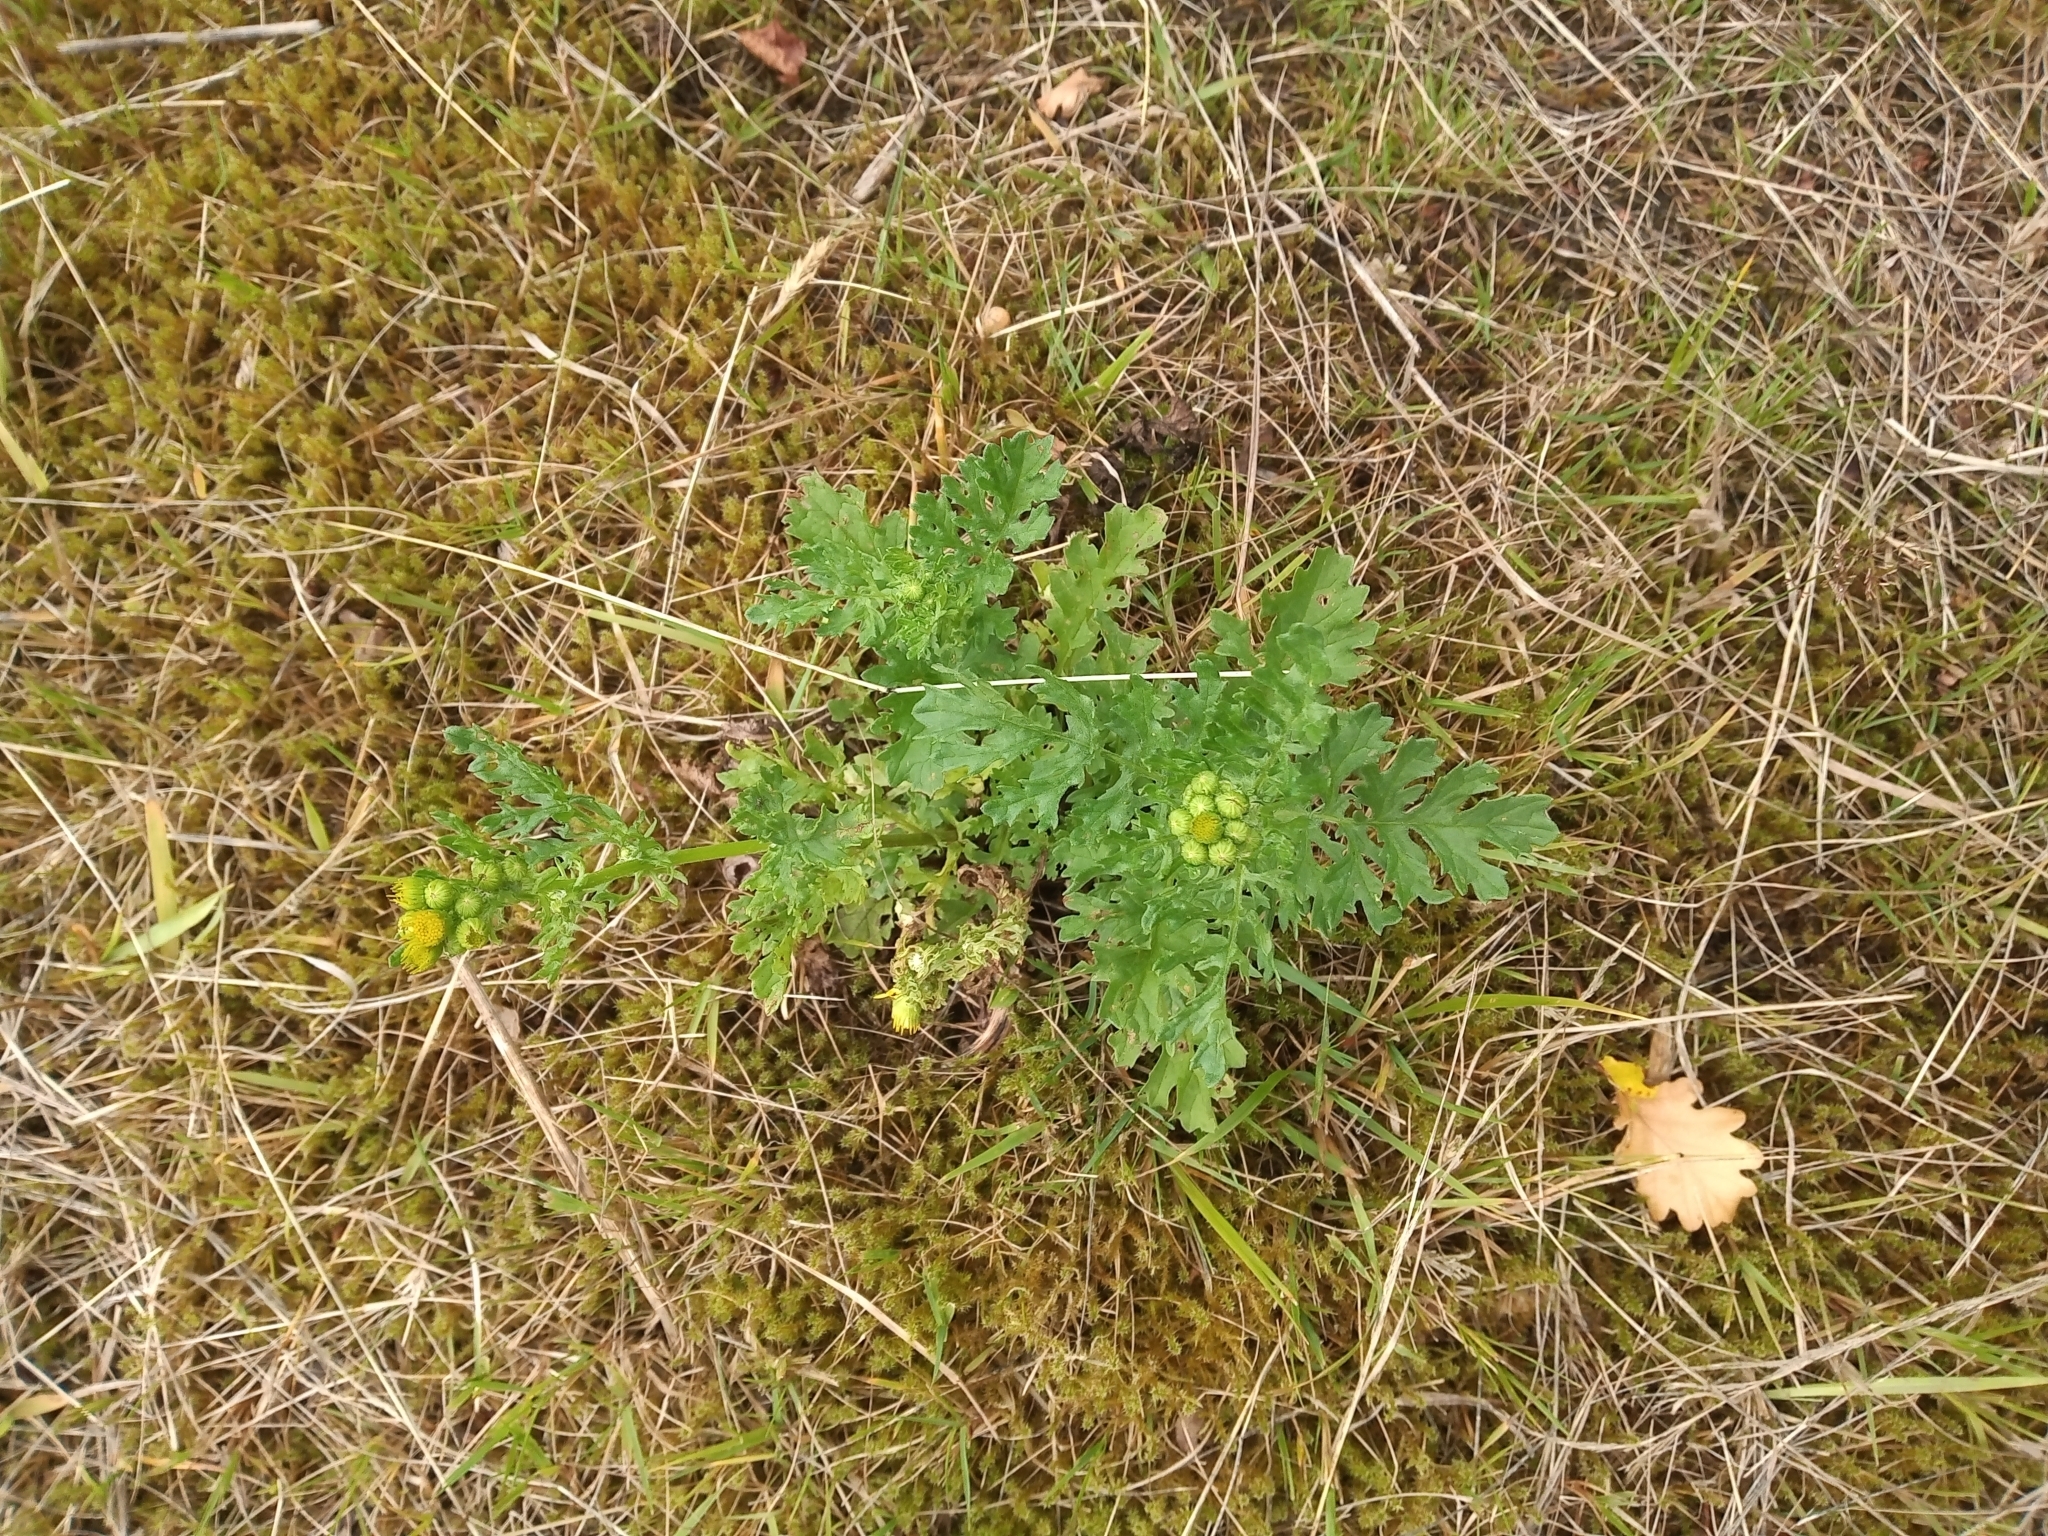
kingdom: Plantae
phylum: Tracheophyta
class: Magnoliopsida
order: Asterales
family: Asteraceae
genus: Jacobaea
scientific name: Jacobaea vulgaris
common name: Stinking willie
